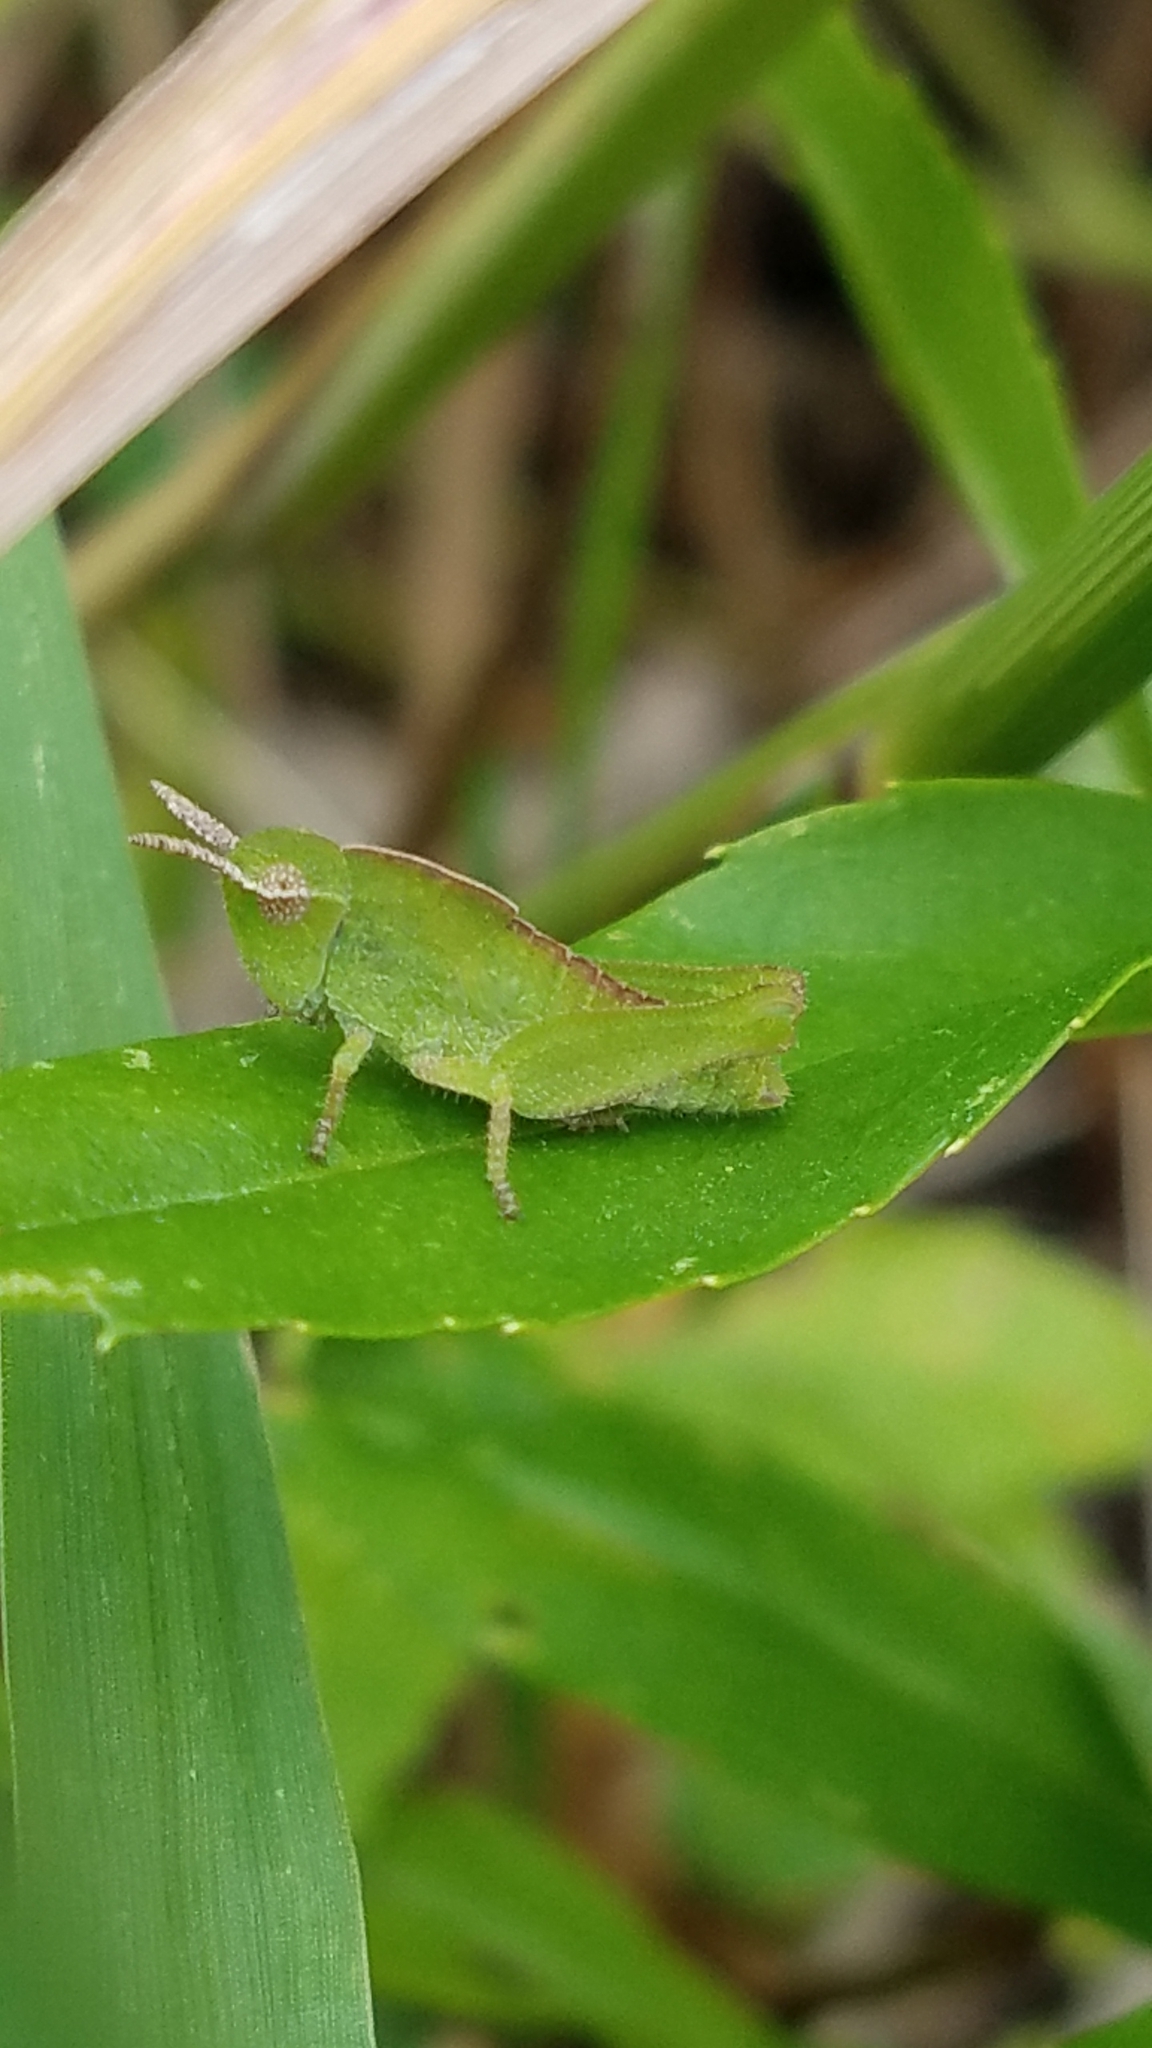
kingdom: Animalia
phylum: Arthropoda
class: Insecta
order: Orthoptera
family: Acrididae
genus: Chortophaga
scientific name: Chortophaga viridifasciata
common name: Green-striped grasshopper
